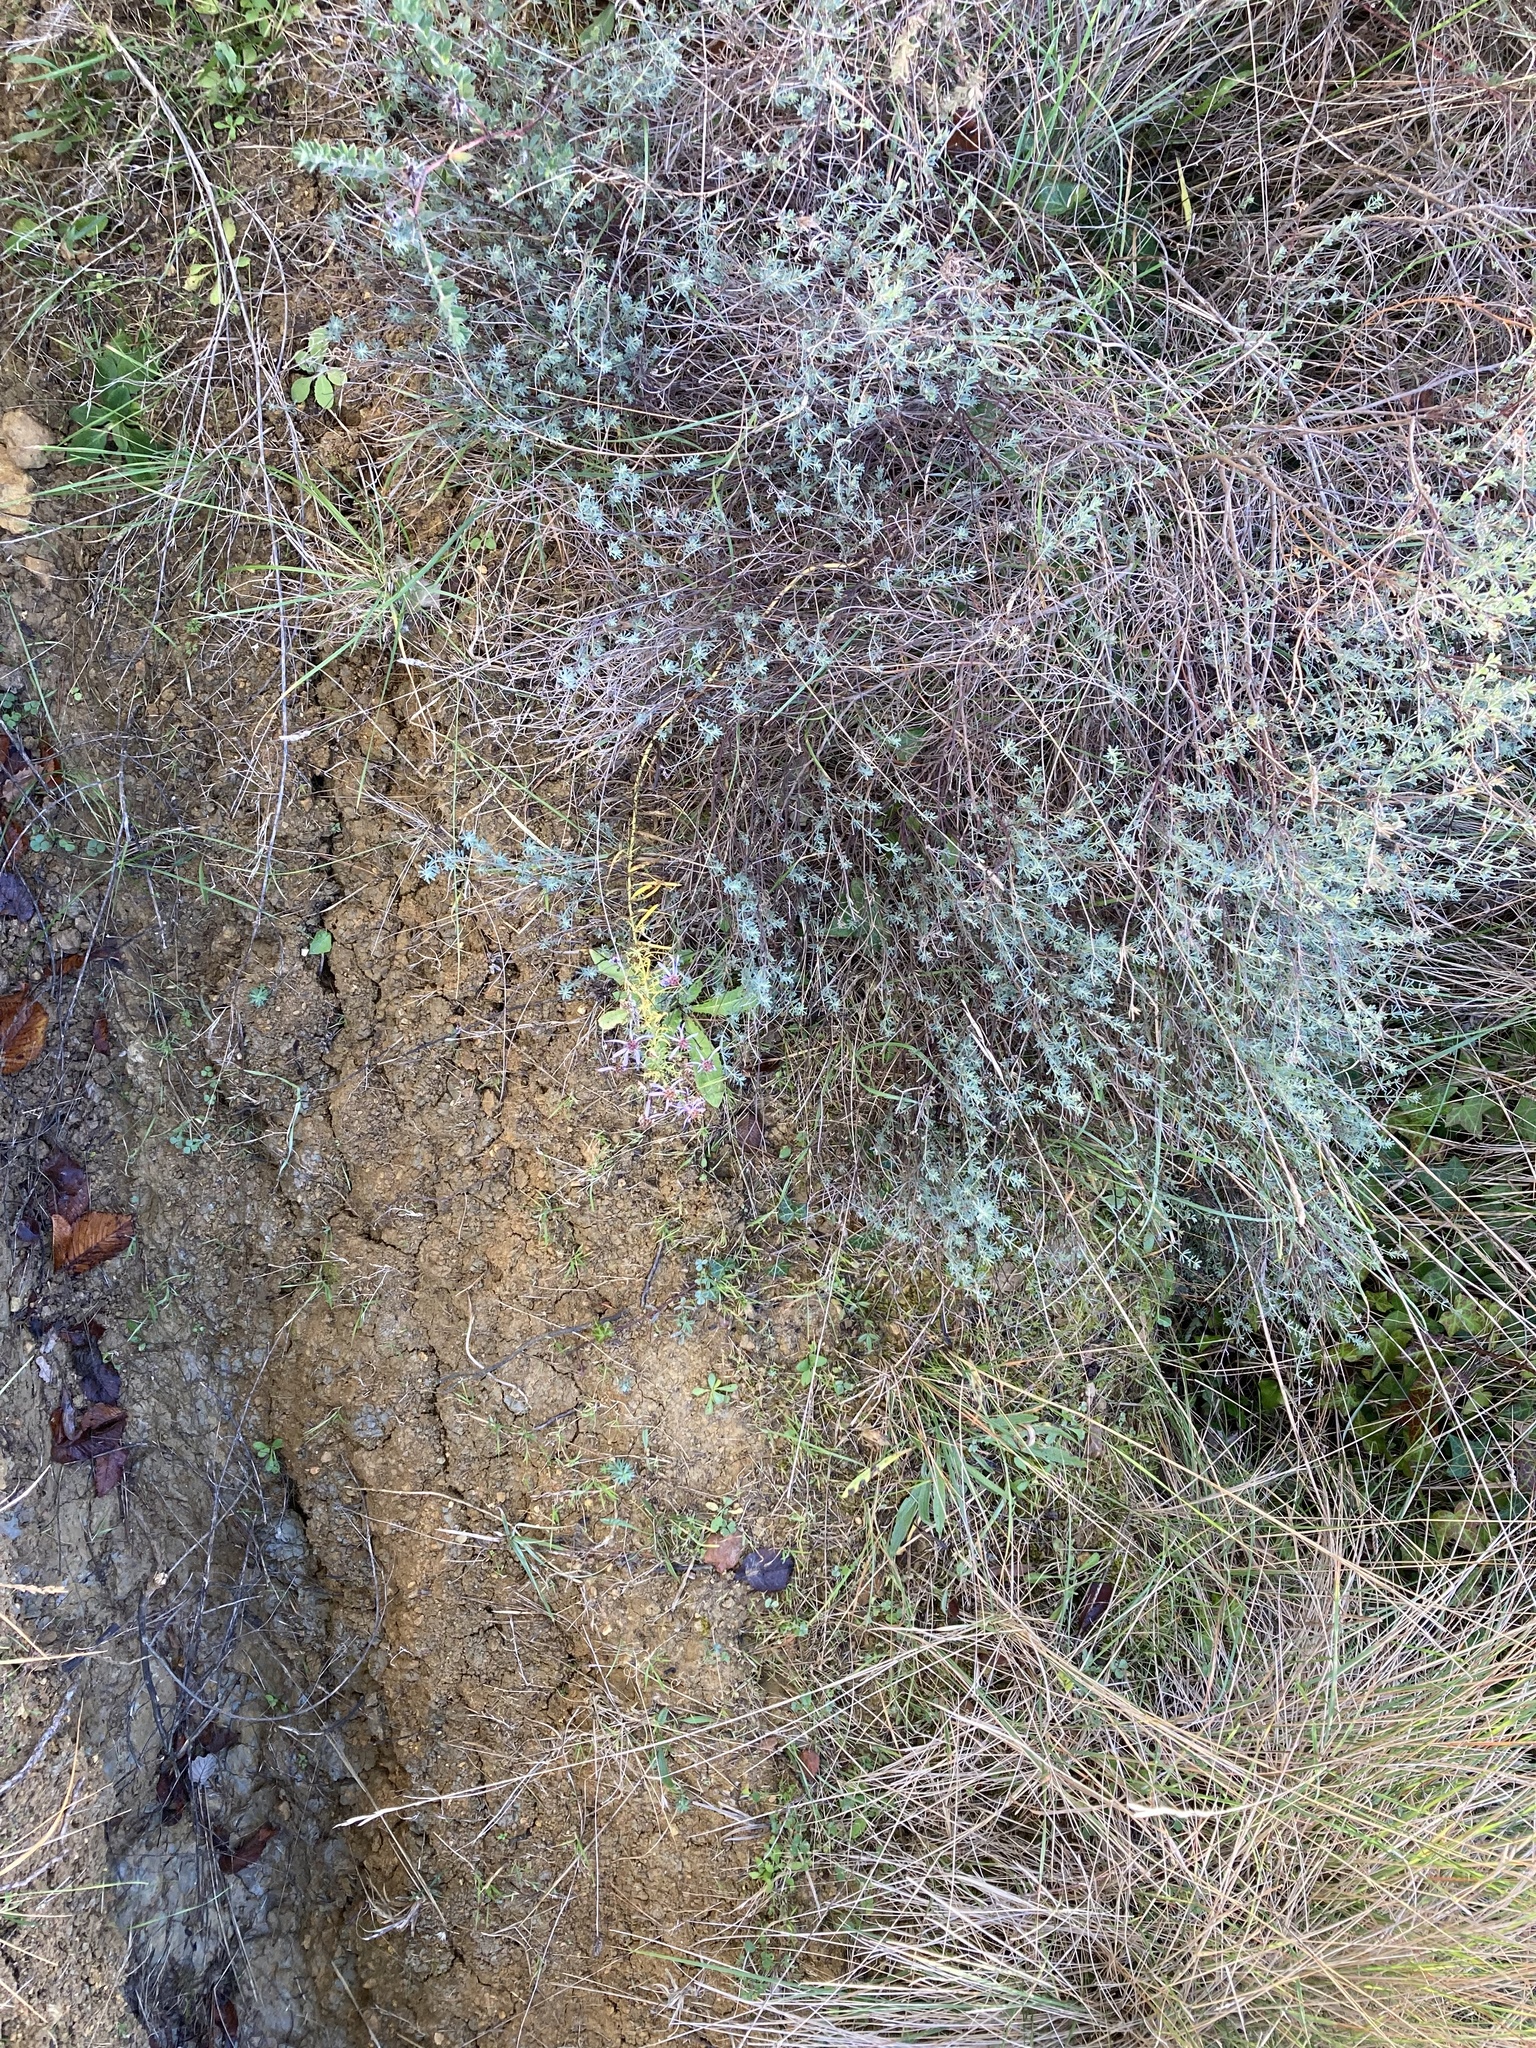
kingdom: Plantae
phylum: Tracheophyta
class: Magnoliopsida
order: Asterales
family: Asteraceae
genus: Galatella
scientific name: Galatella sedifolia
